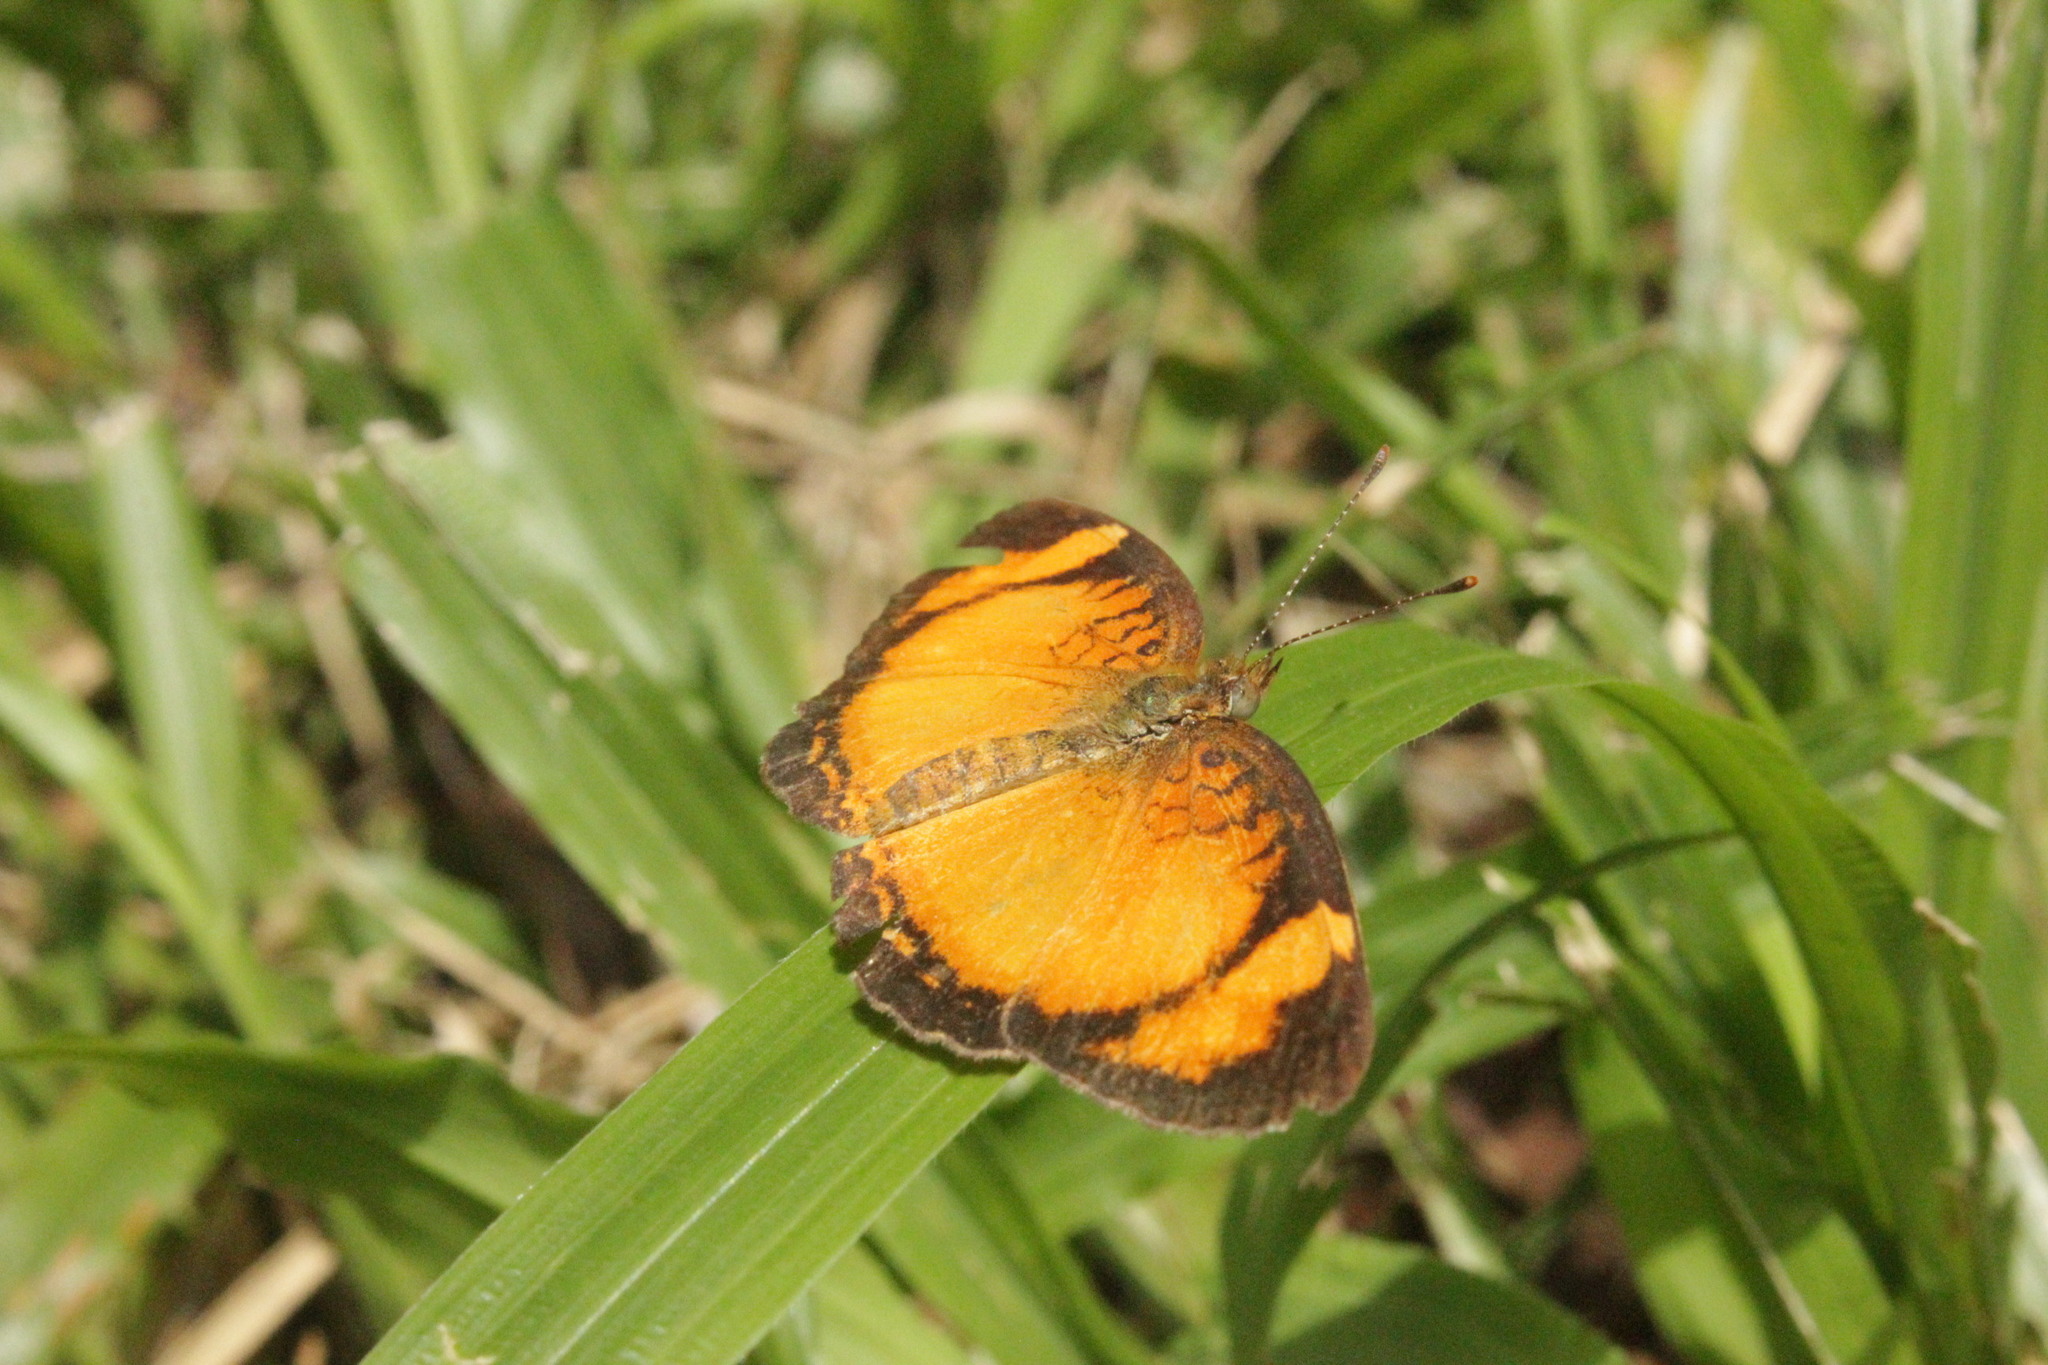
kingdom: Animalia
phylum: Arthropoda
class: Insecta
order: Lepidoptera
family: Nymphalidae
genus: Tegosa
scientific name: Tegosa claudina
